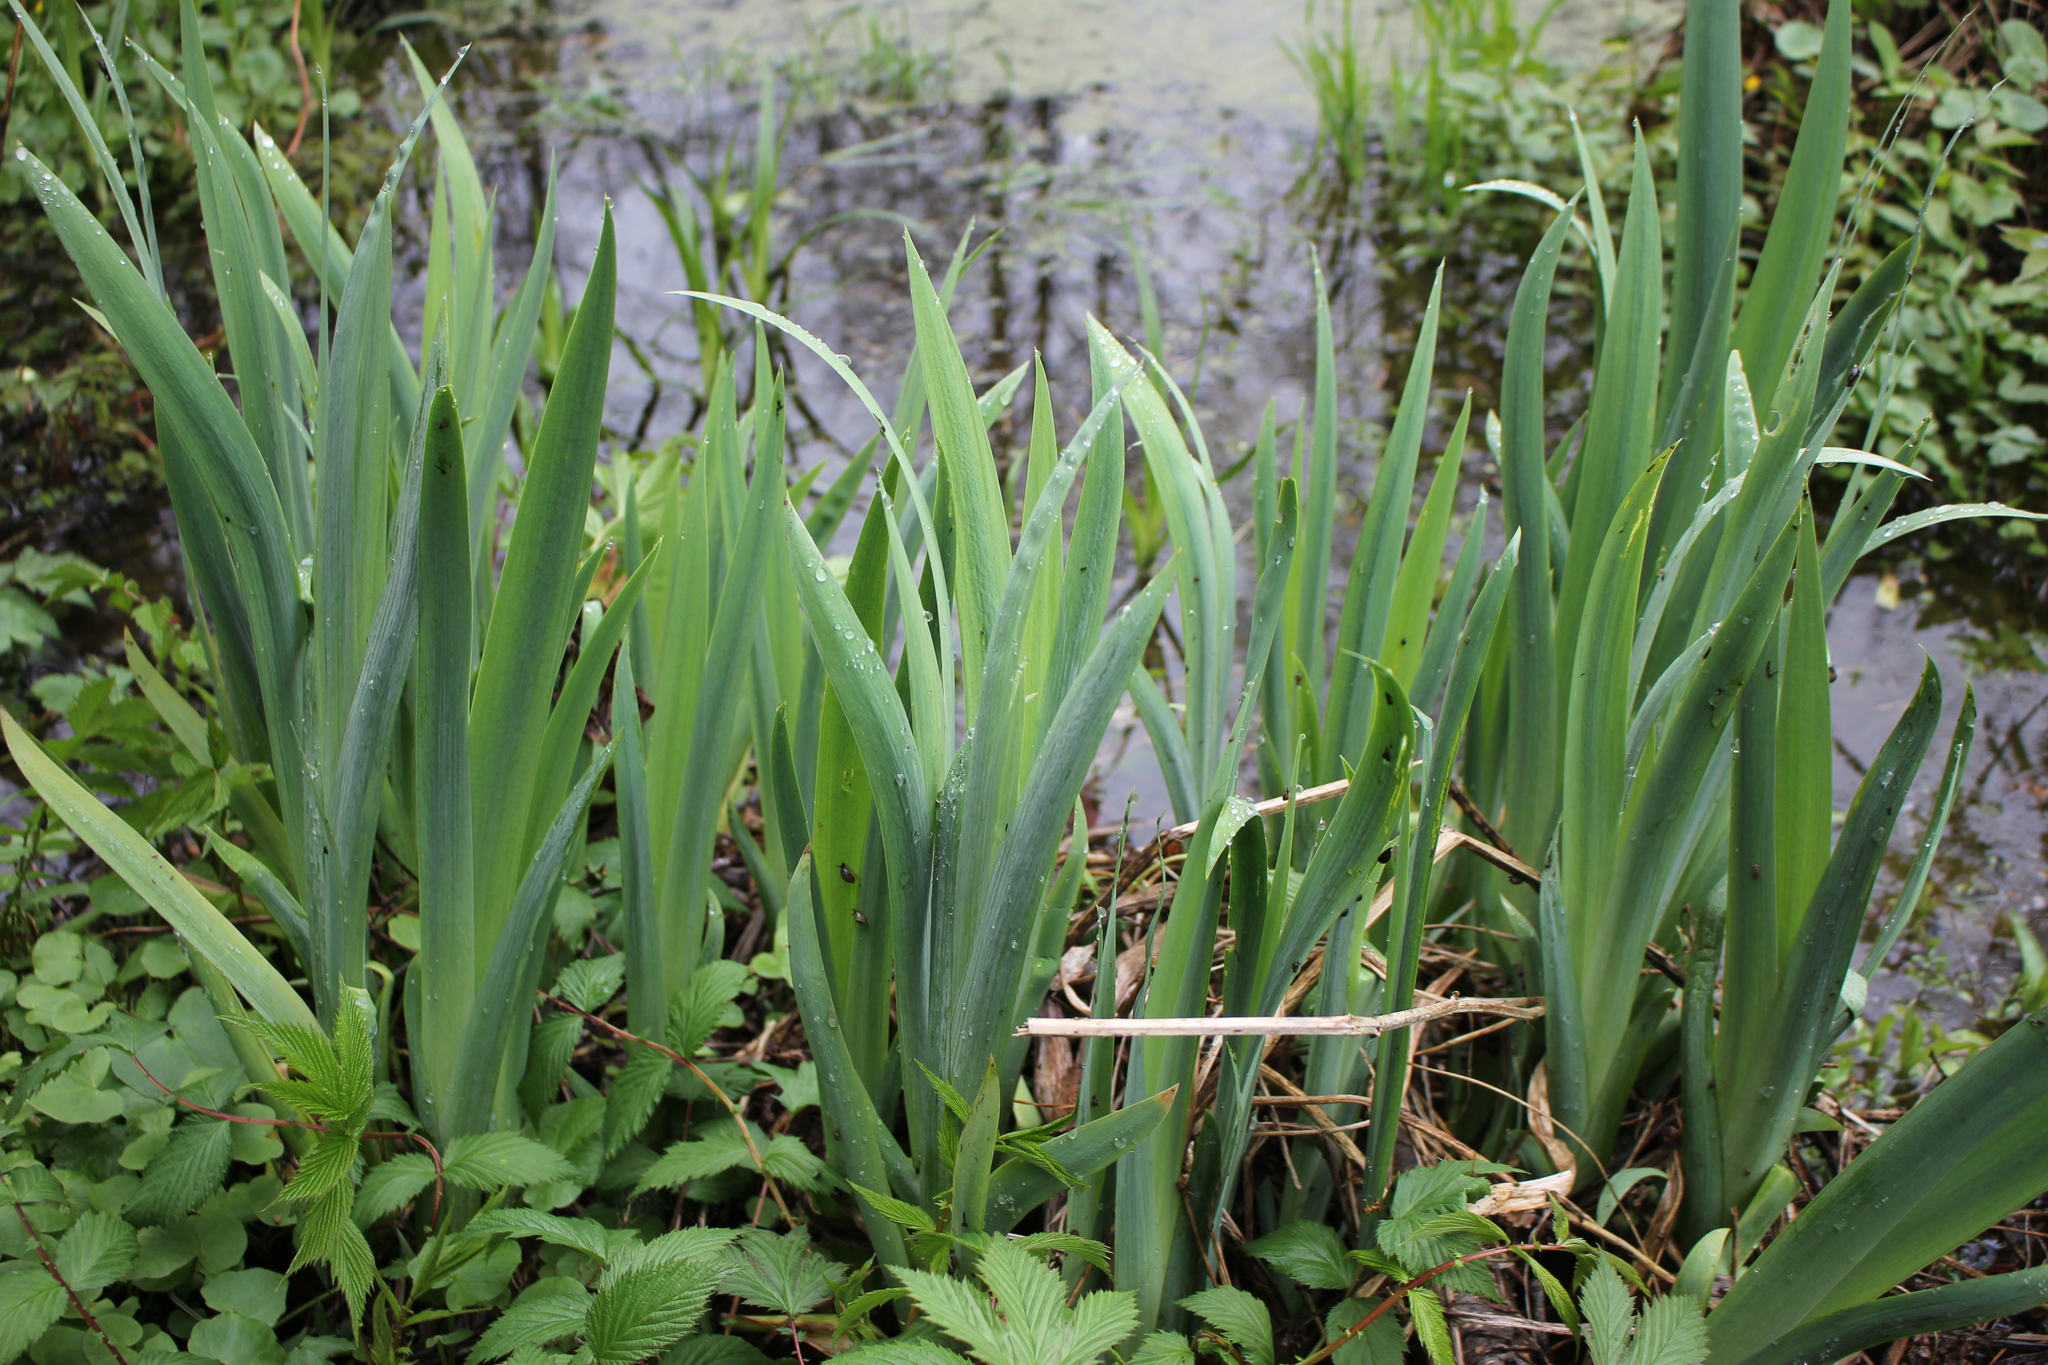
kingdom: Plantae
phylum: Tracheophyta
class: Liliopsida
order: Asparagales
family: Iridaceae
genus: Iris
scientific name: Iris pseudacorus
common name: Yellow flag
